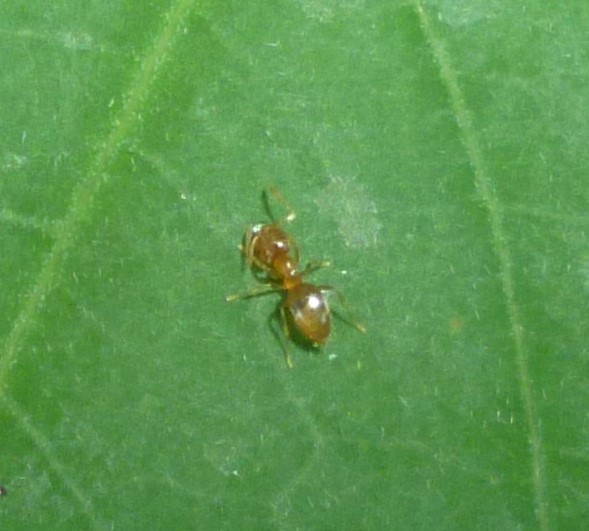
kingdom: Animalia
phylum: Arthropoda
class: Insecta
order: Hymenoptera
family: Formicidae
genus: Brachymyrmex
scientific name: Brachymyrmex depilis
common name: Hairless rover ant
